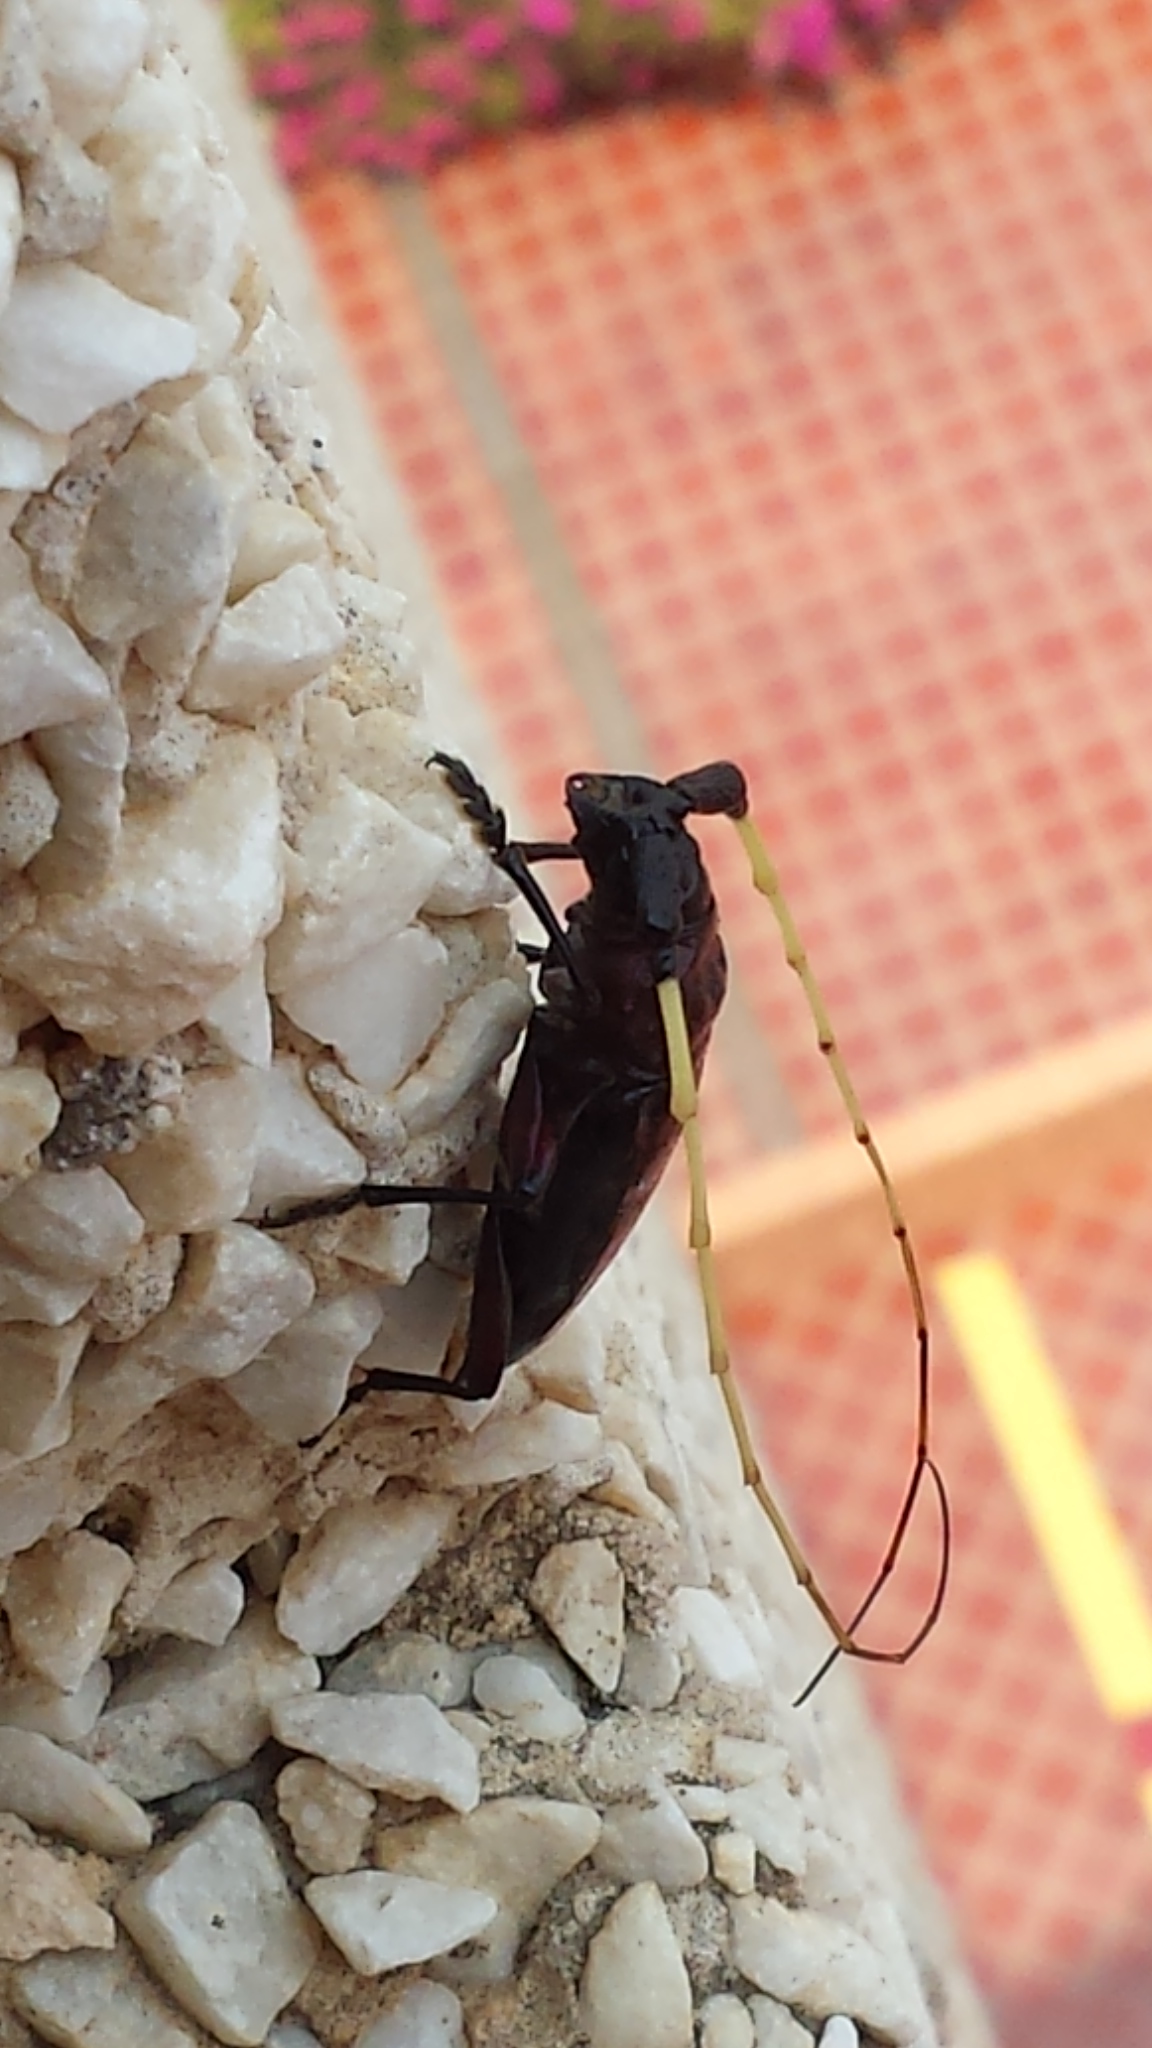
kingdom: Animalia
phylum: Arthropoda
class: Insecta
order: Coleoptera
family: Cerambycidae
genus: Ancylosternus
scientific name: Ancylosternus morio
